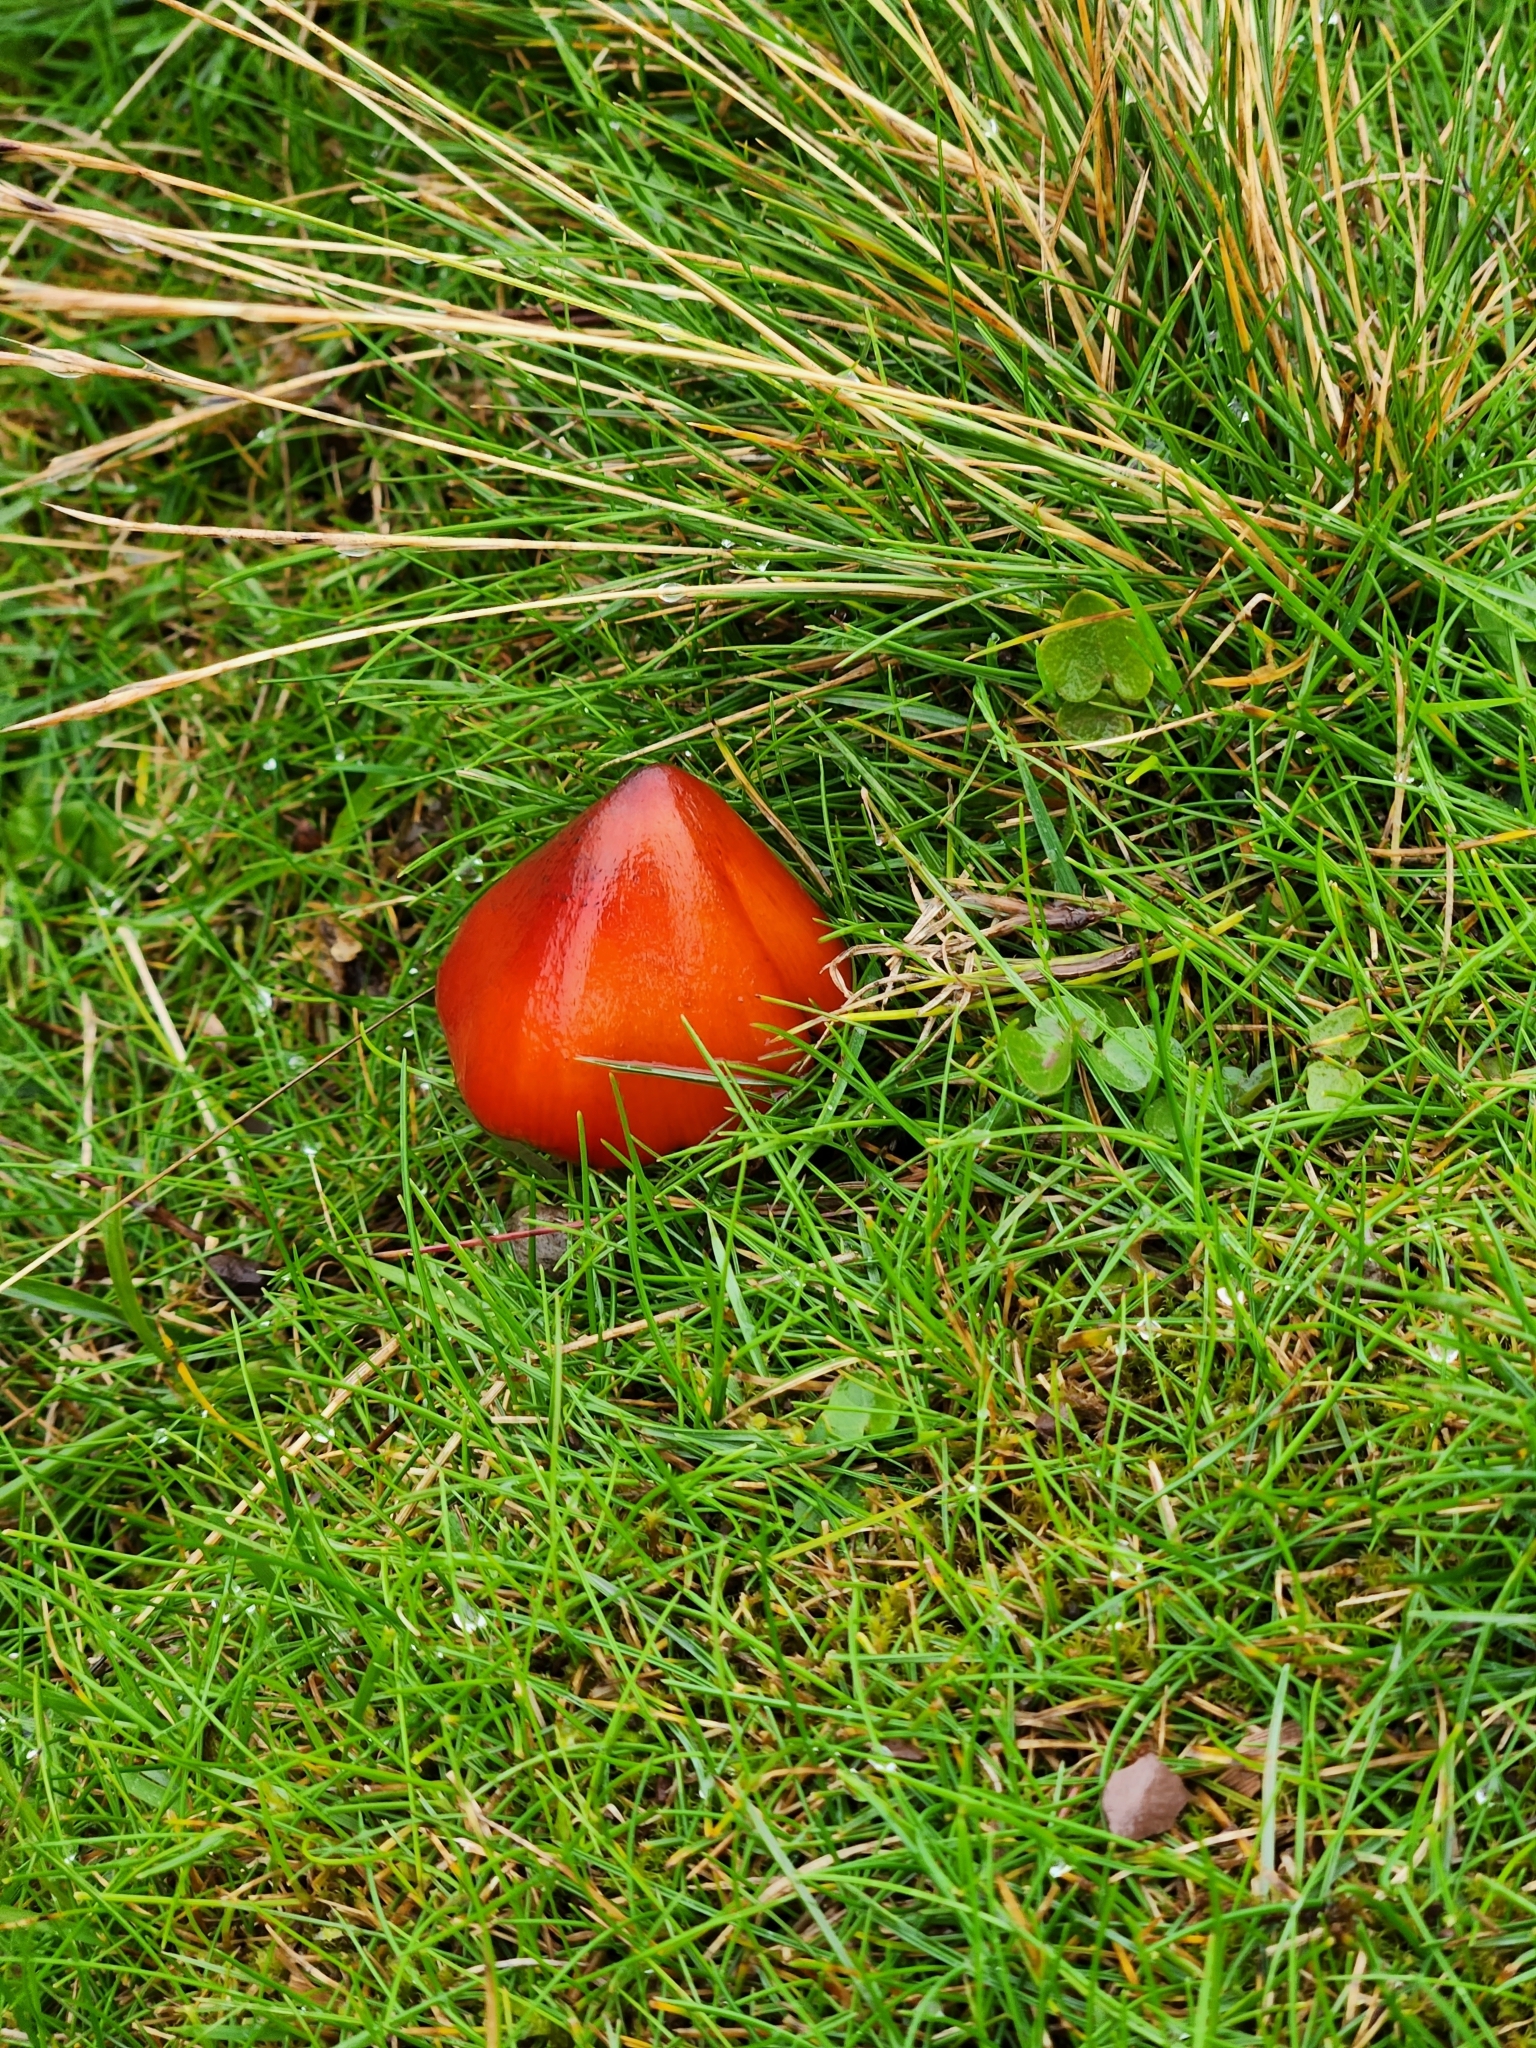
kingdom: Fungi
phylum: Basidiomycota
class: Agaricomycetes
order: Agaricales
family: Hygrophoraceae
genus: Hygrocybe
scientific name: Hygrocybe conica
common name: Blackening wax-cap
